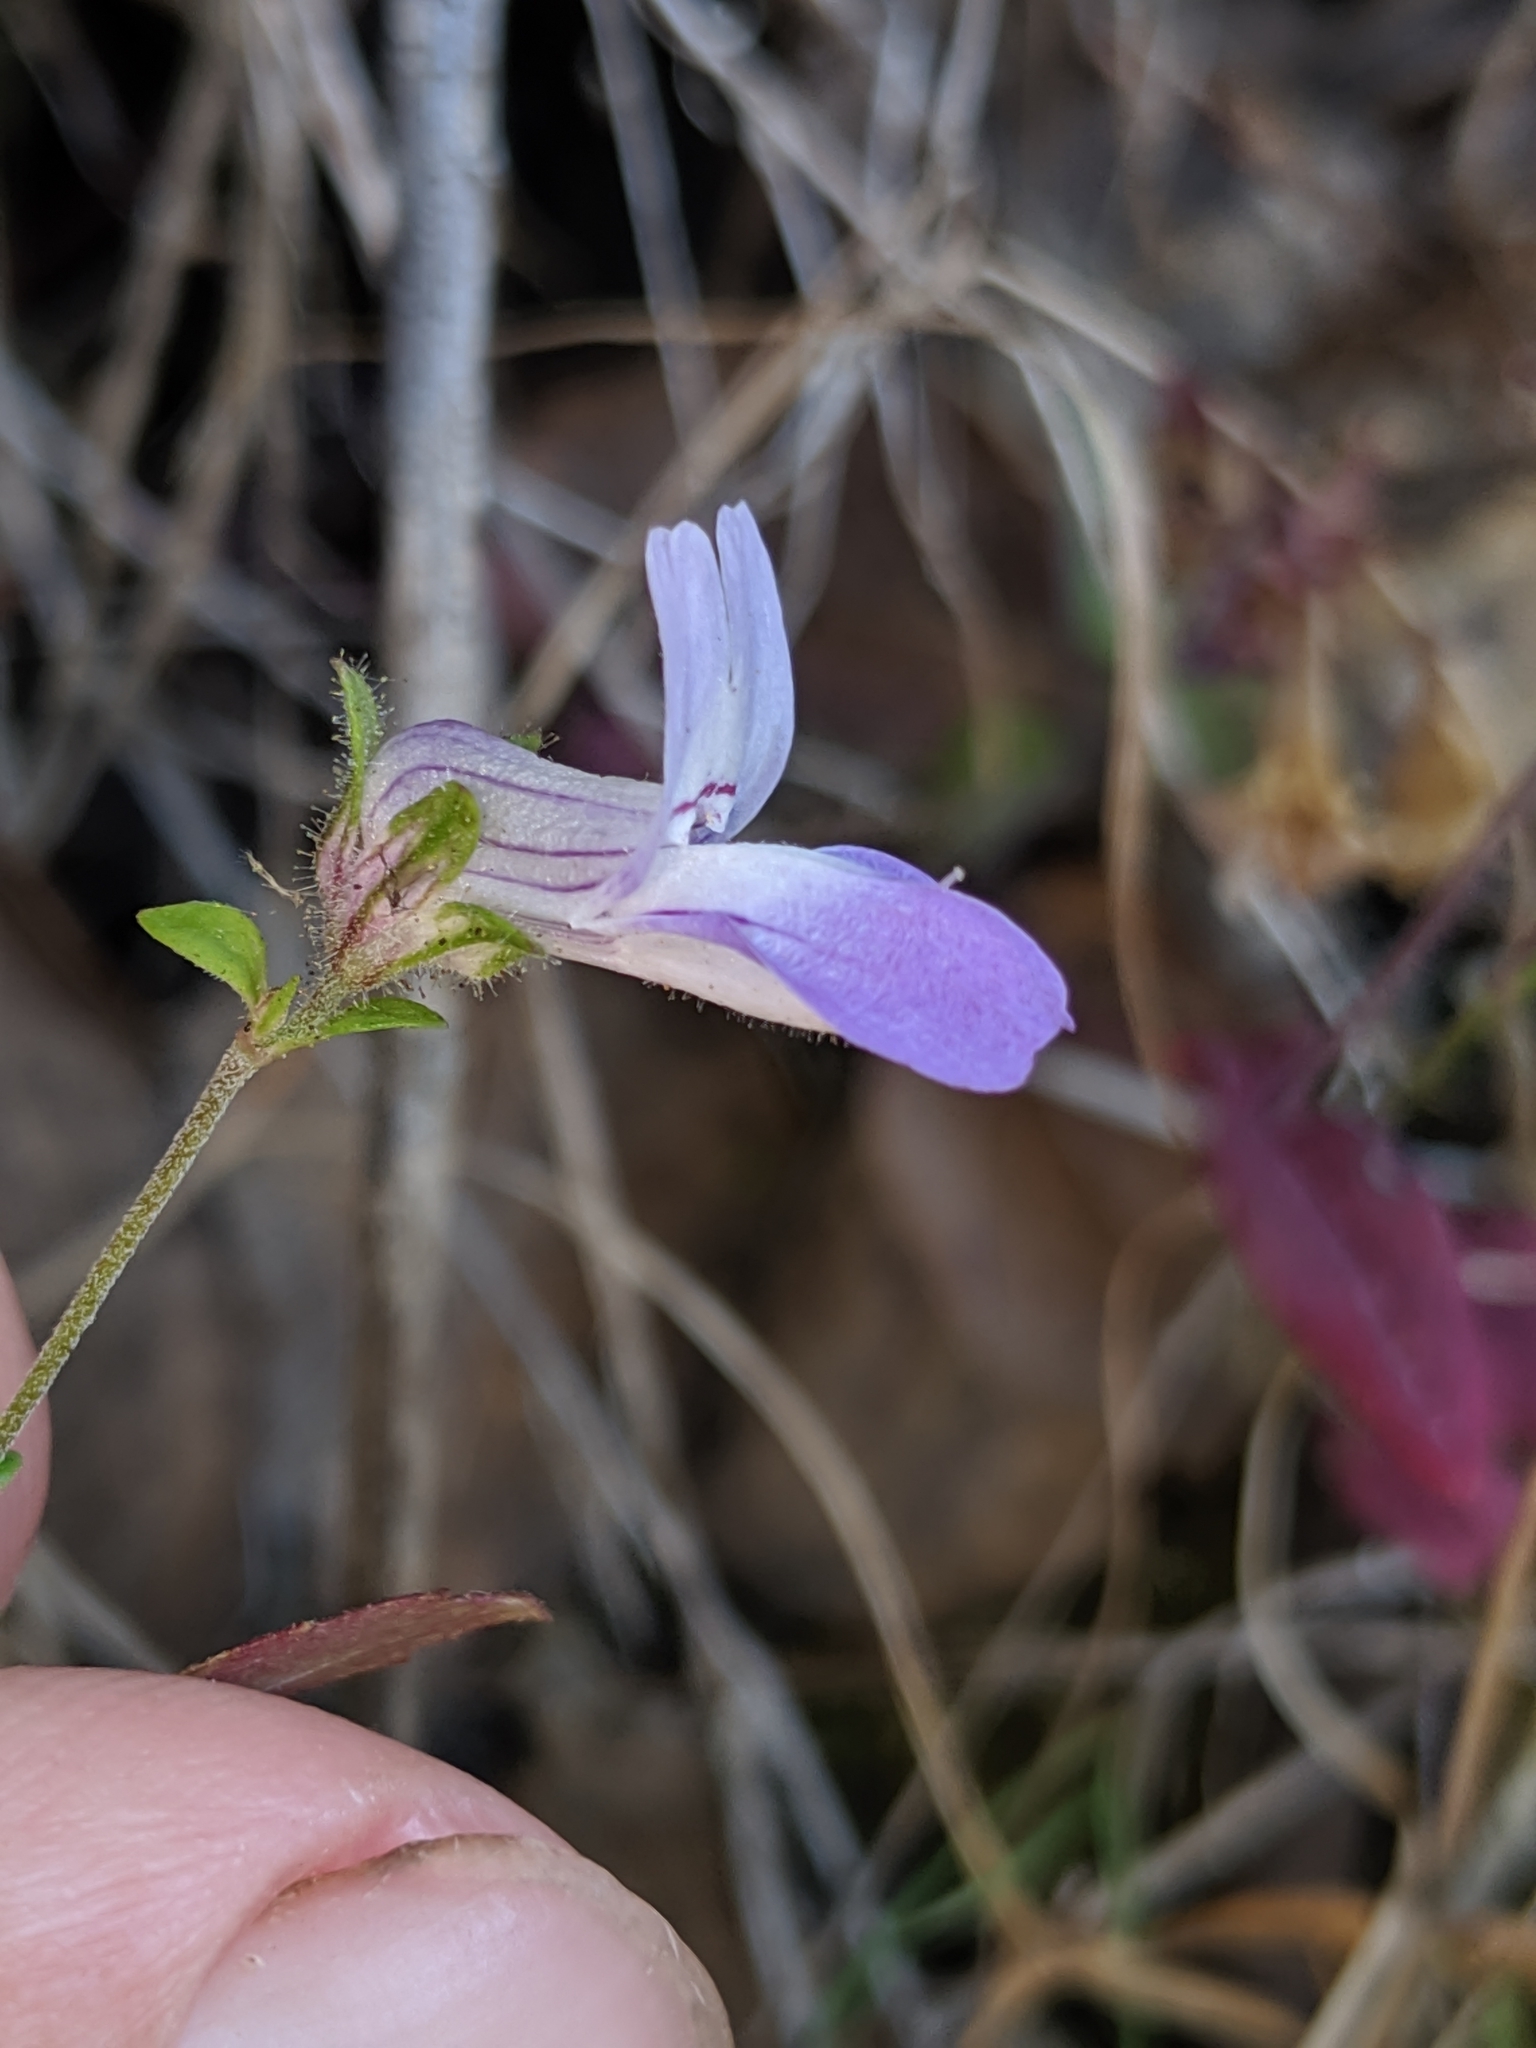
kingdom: Plantae
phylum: Tracheophyta
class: Magnoliopsida
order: Lamiales
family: Plantaginaceae
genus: Collinsia
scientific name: Collinsia sparsiflora
